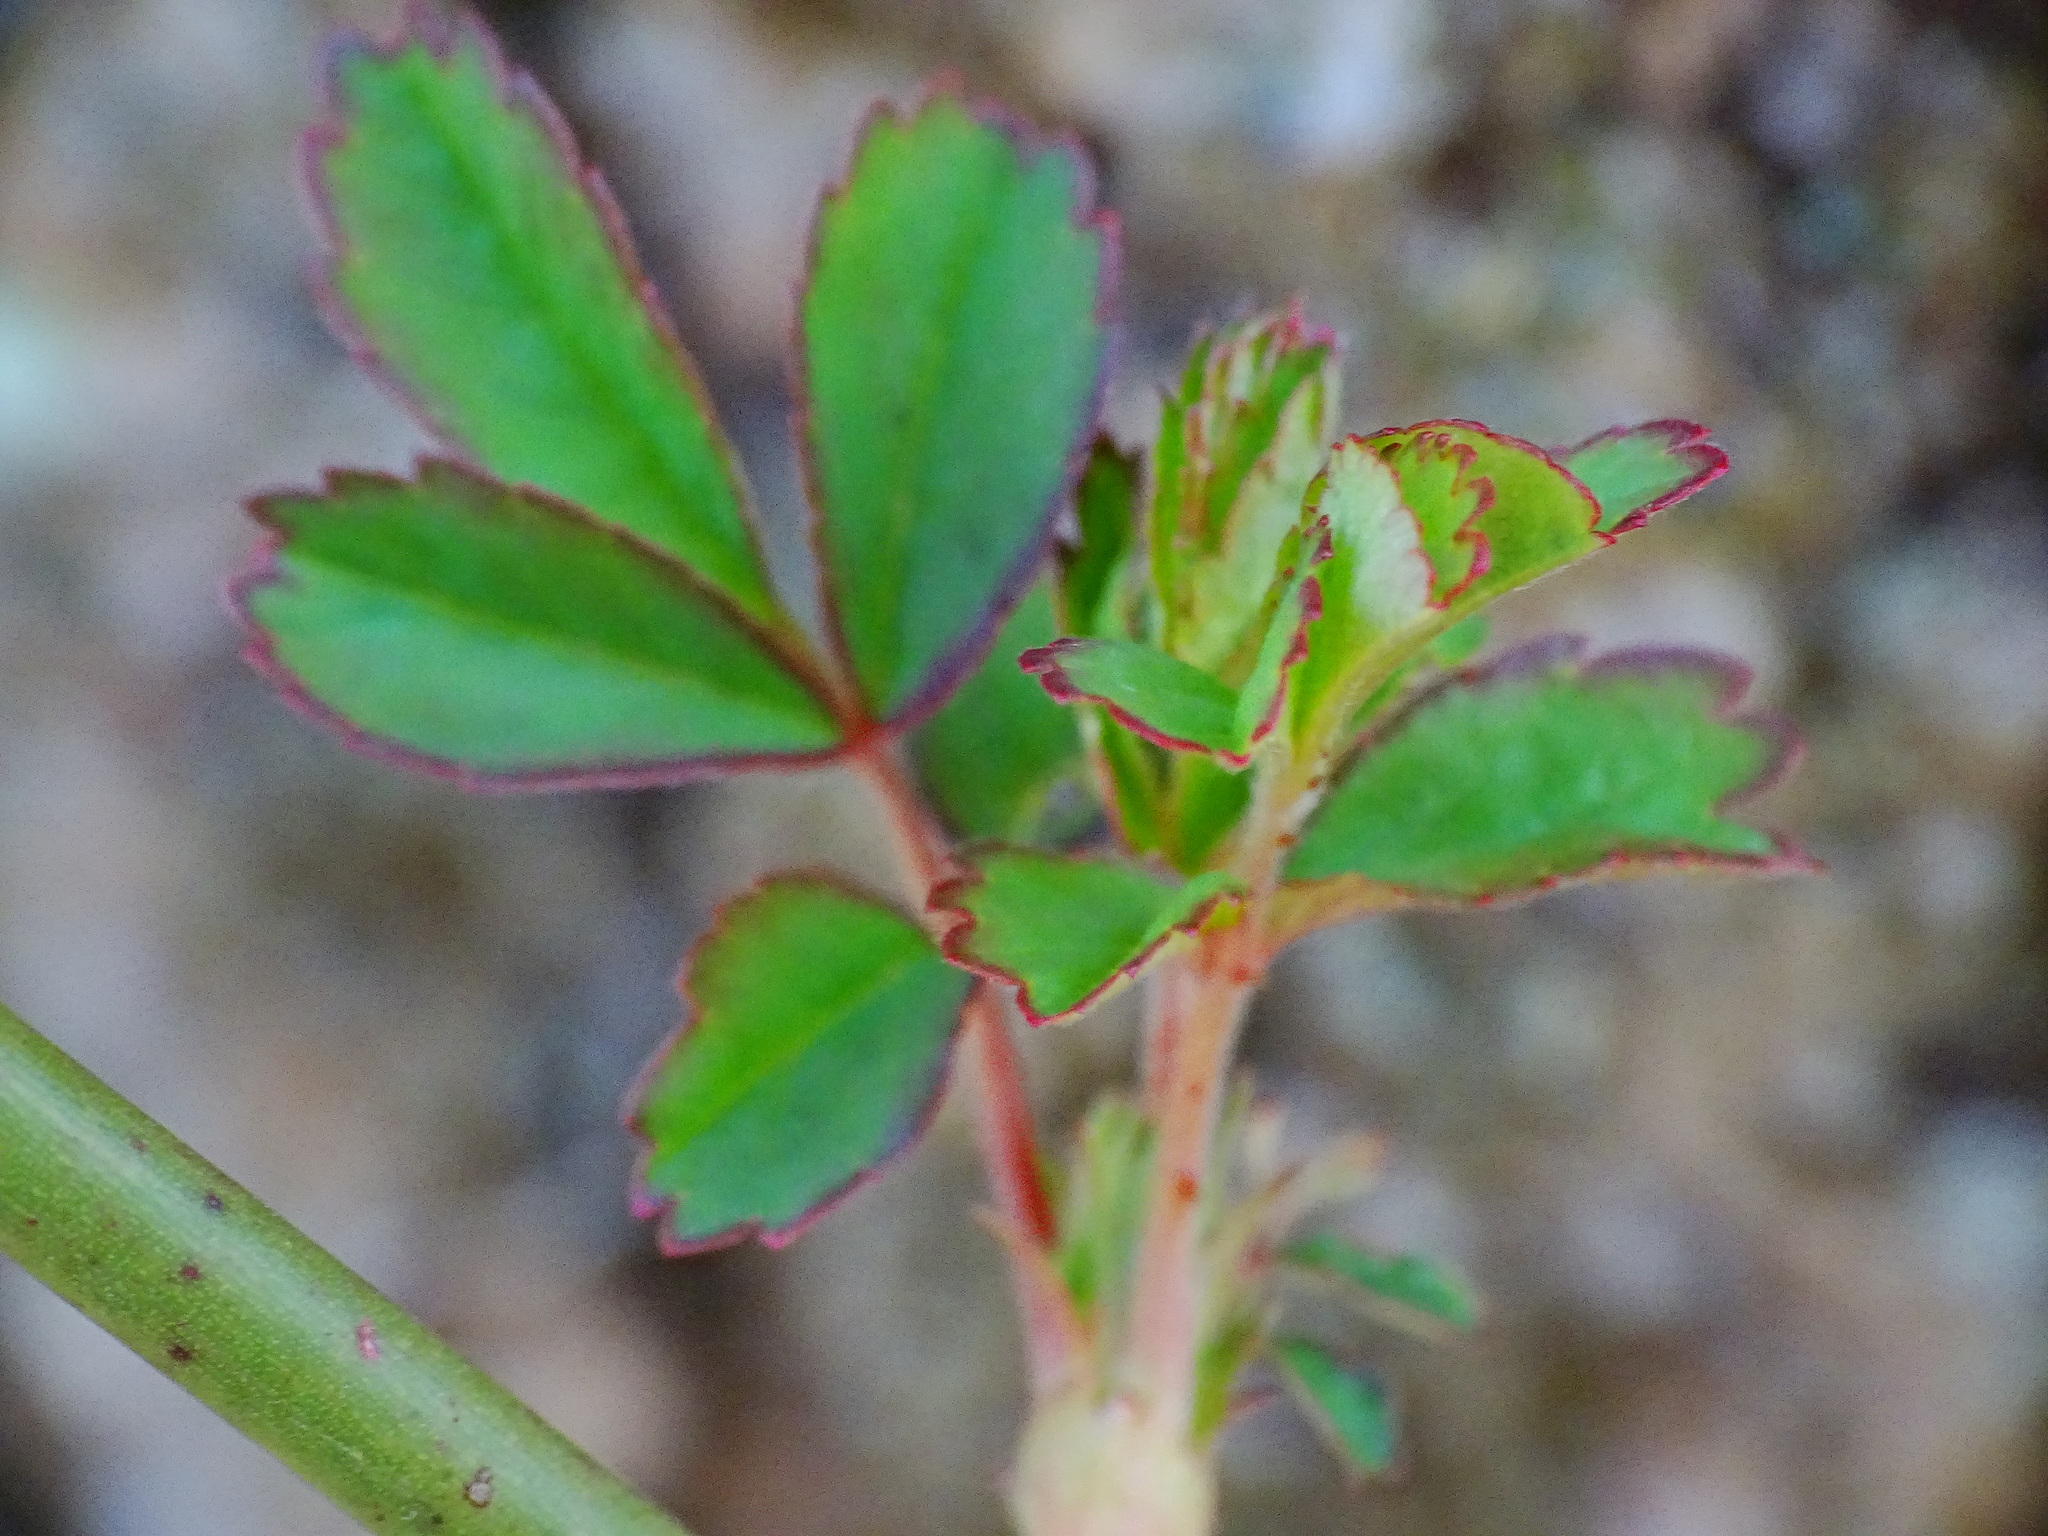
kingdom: Plantae
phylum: Tracheophyta
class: Magnoliopsida
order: Rosales
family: Rosaceae
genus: Rosa
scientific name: Rosa multiflora
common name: Multiflora rose
